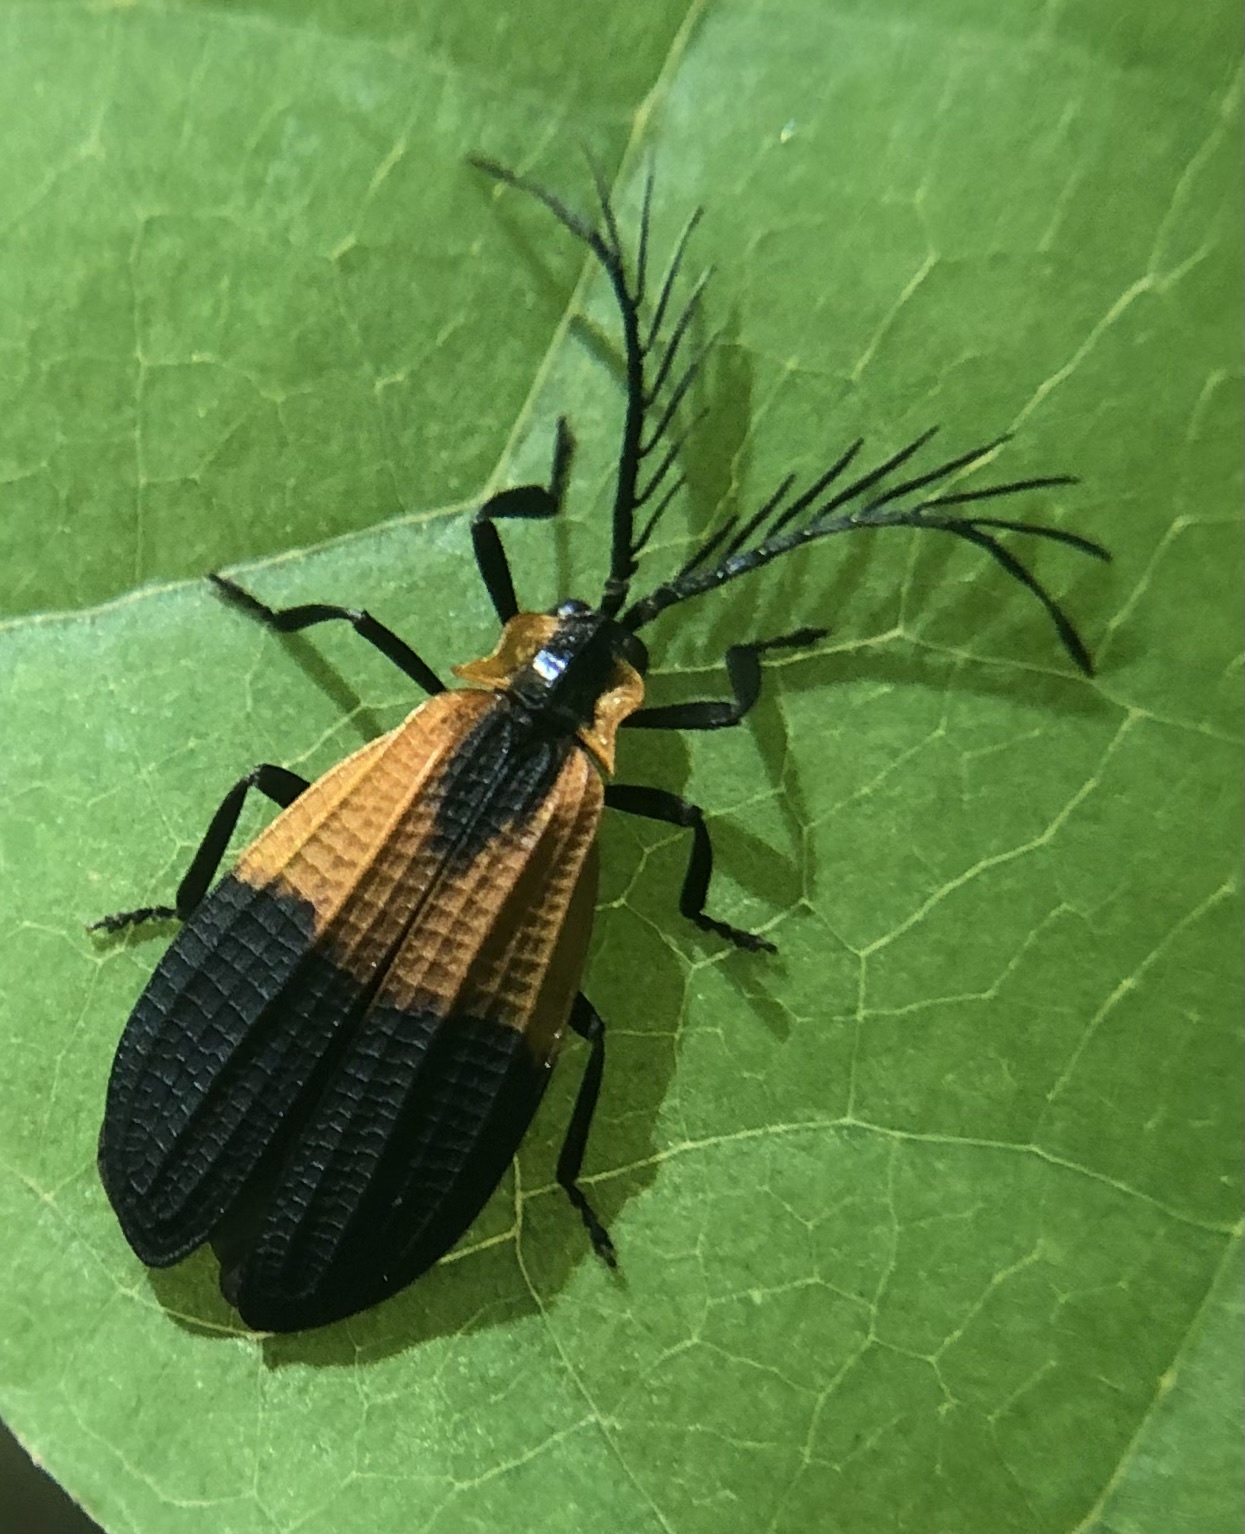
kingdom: Animalia
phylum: Arthropoda
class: Insecta
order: Coleoptera
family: Lycidae
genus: Caenia
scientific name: Caenia dimidiata
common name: Terminal net-winged beetle
